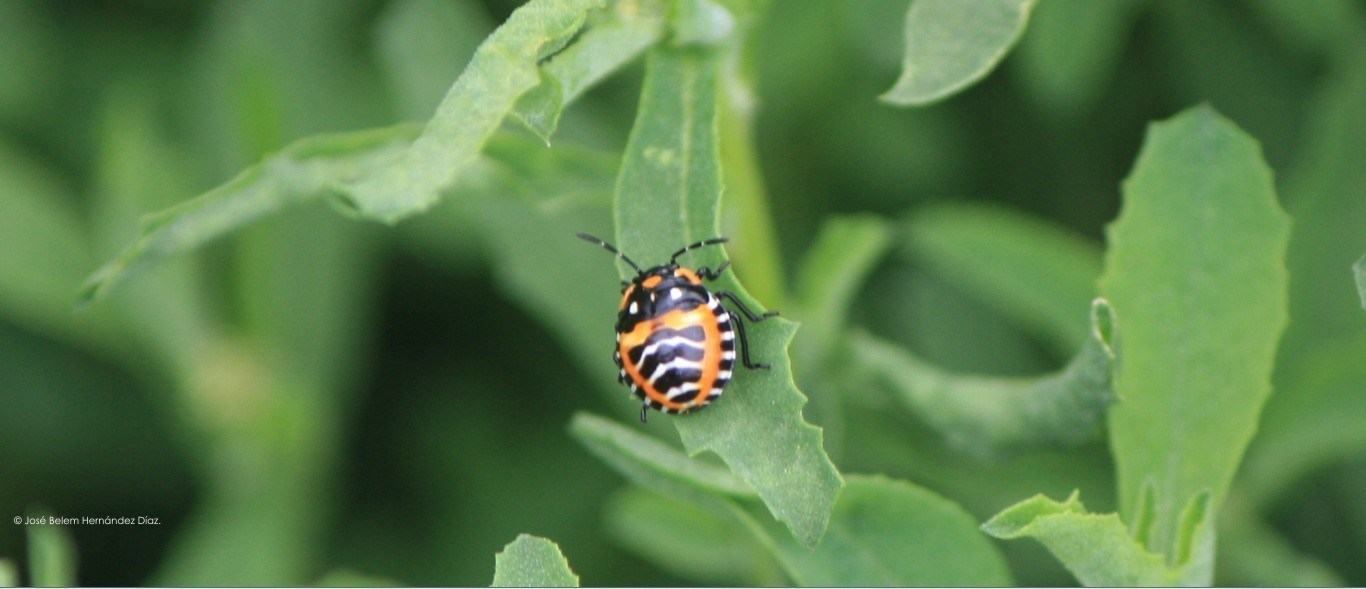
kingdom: Animalia
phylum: Arthropoda
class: Insecta
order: Hemiptera
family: Pentatomidae
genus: Murgantia
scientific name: Murgantia histrionica
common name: Harlequin bug
